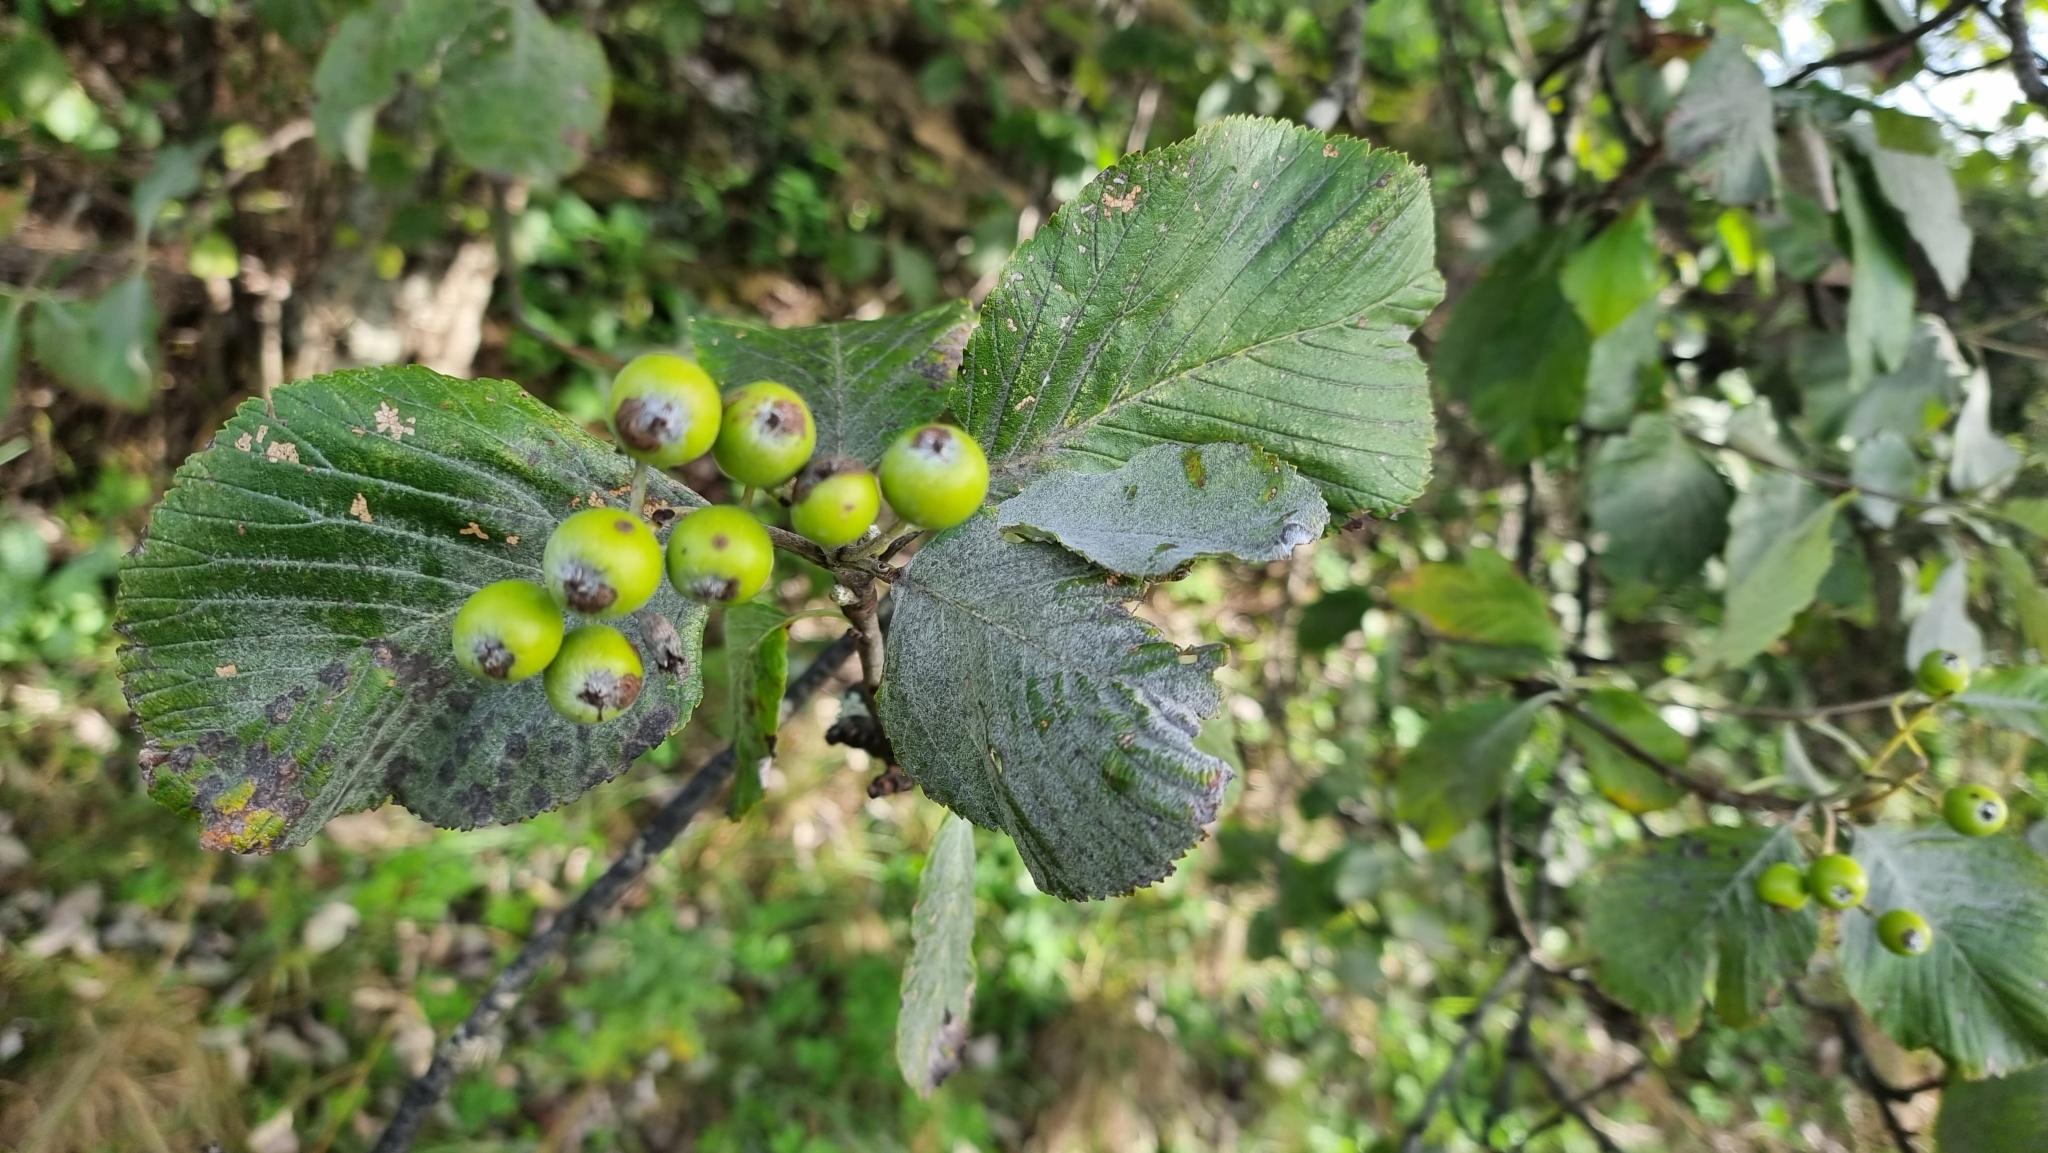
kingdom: Plantae
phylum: Tracheophyta
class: Magnoliopsida
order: Rosales
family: Rosaceae
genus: Aria
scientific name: Aria edulis
